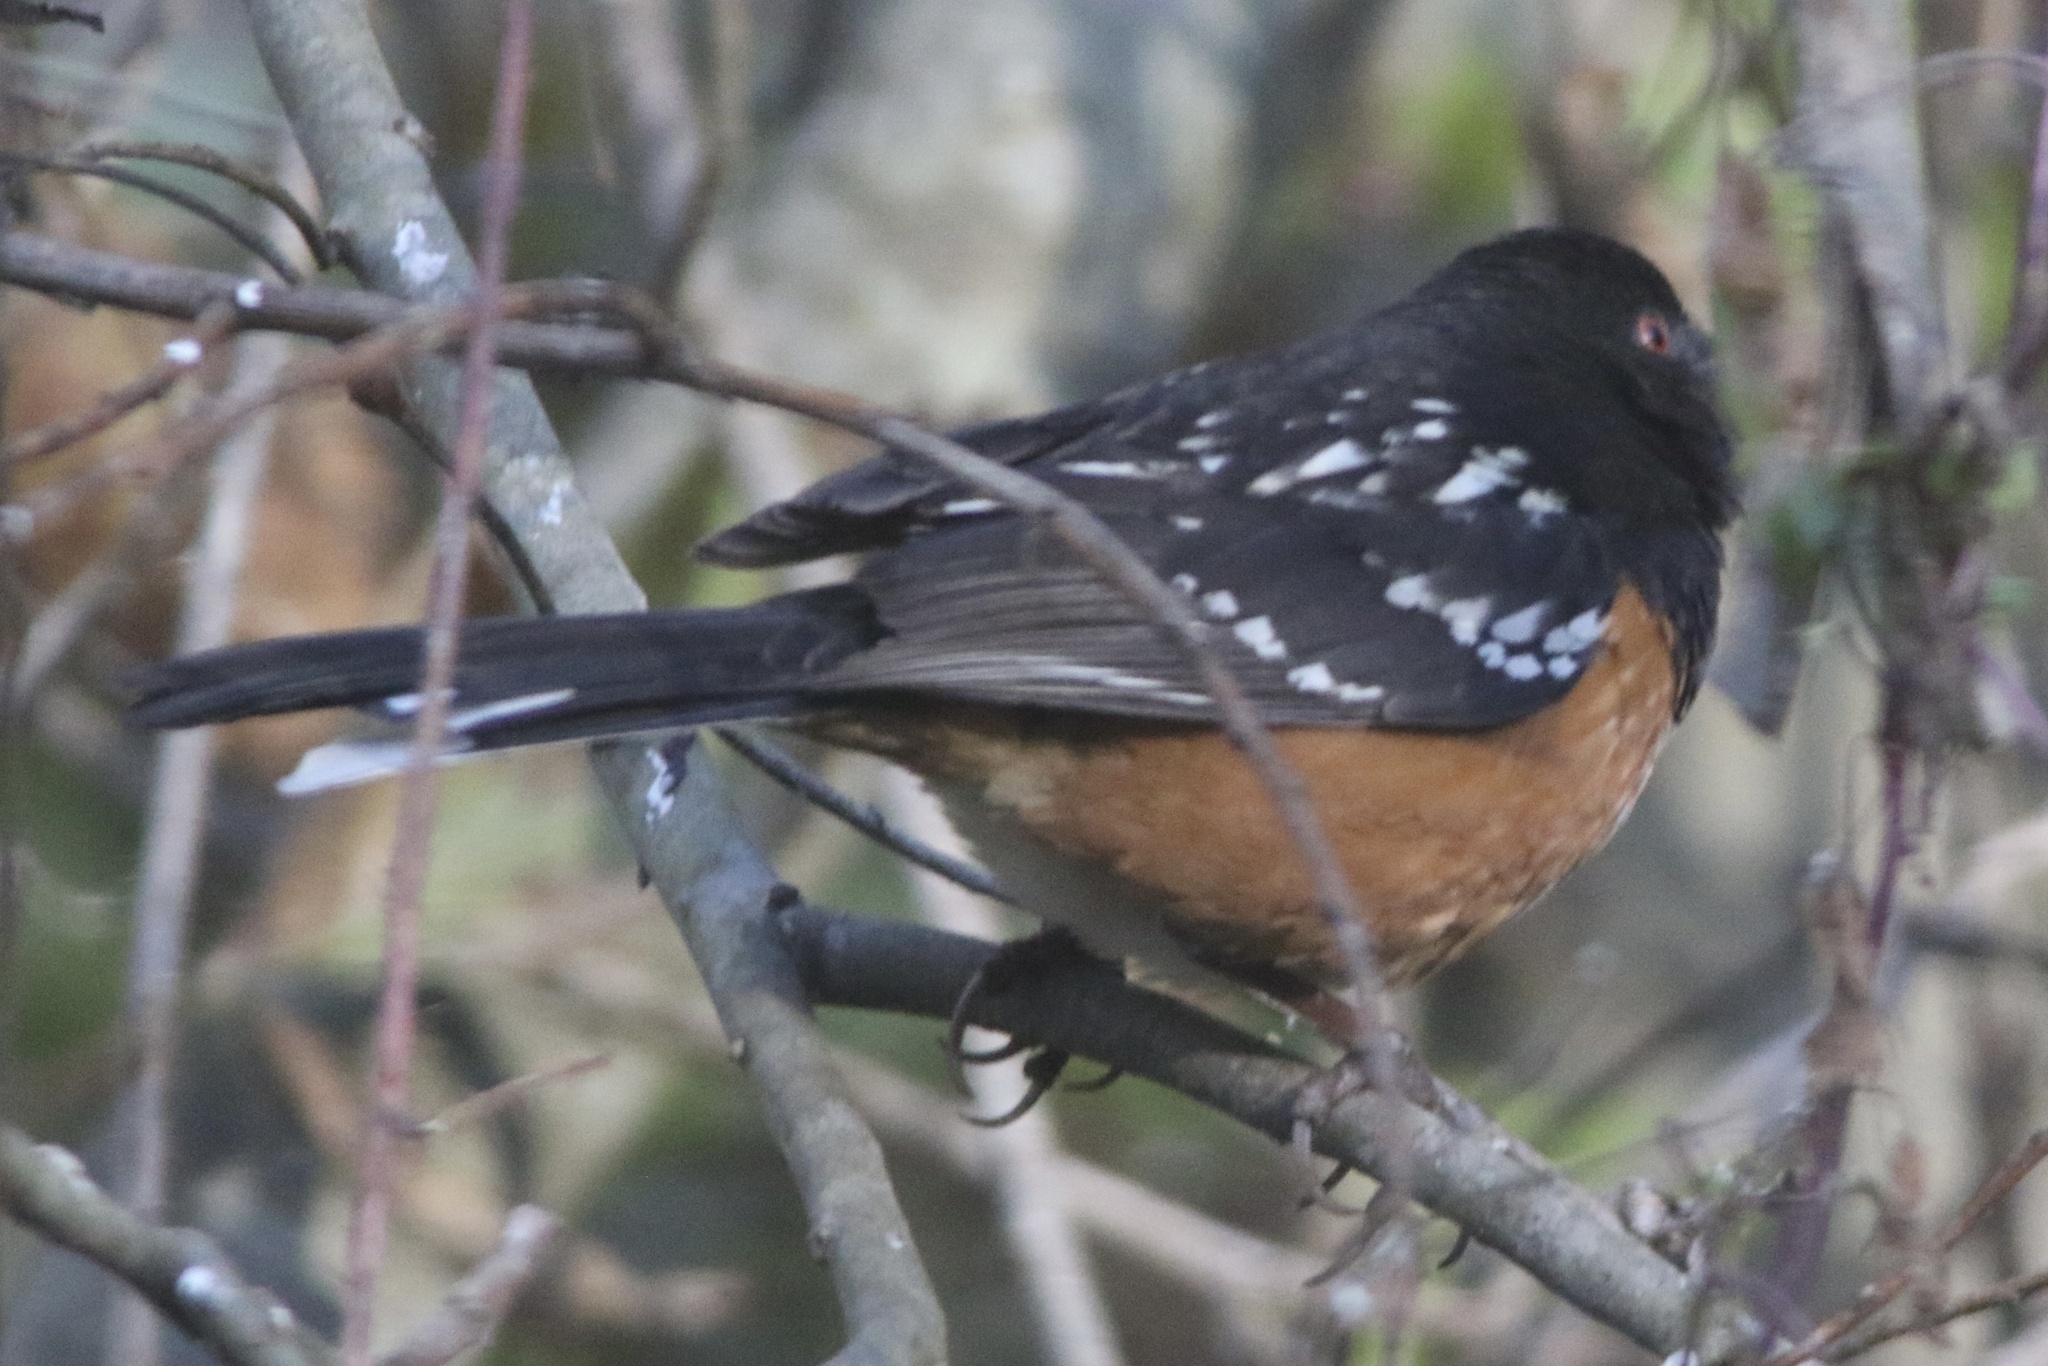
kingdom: Animalia
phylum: Chordata
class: Aves
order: Passeriformes
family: Passerellidae
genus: Pipilo
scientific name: Pipilo maculatus
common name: Spotted towhee
